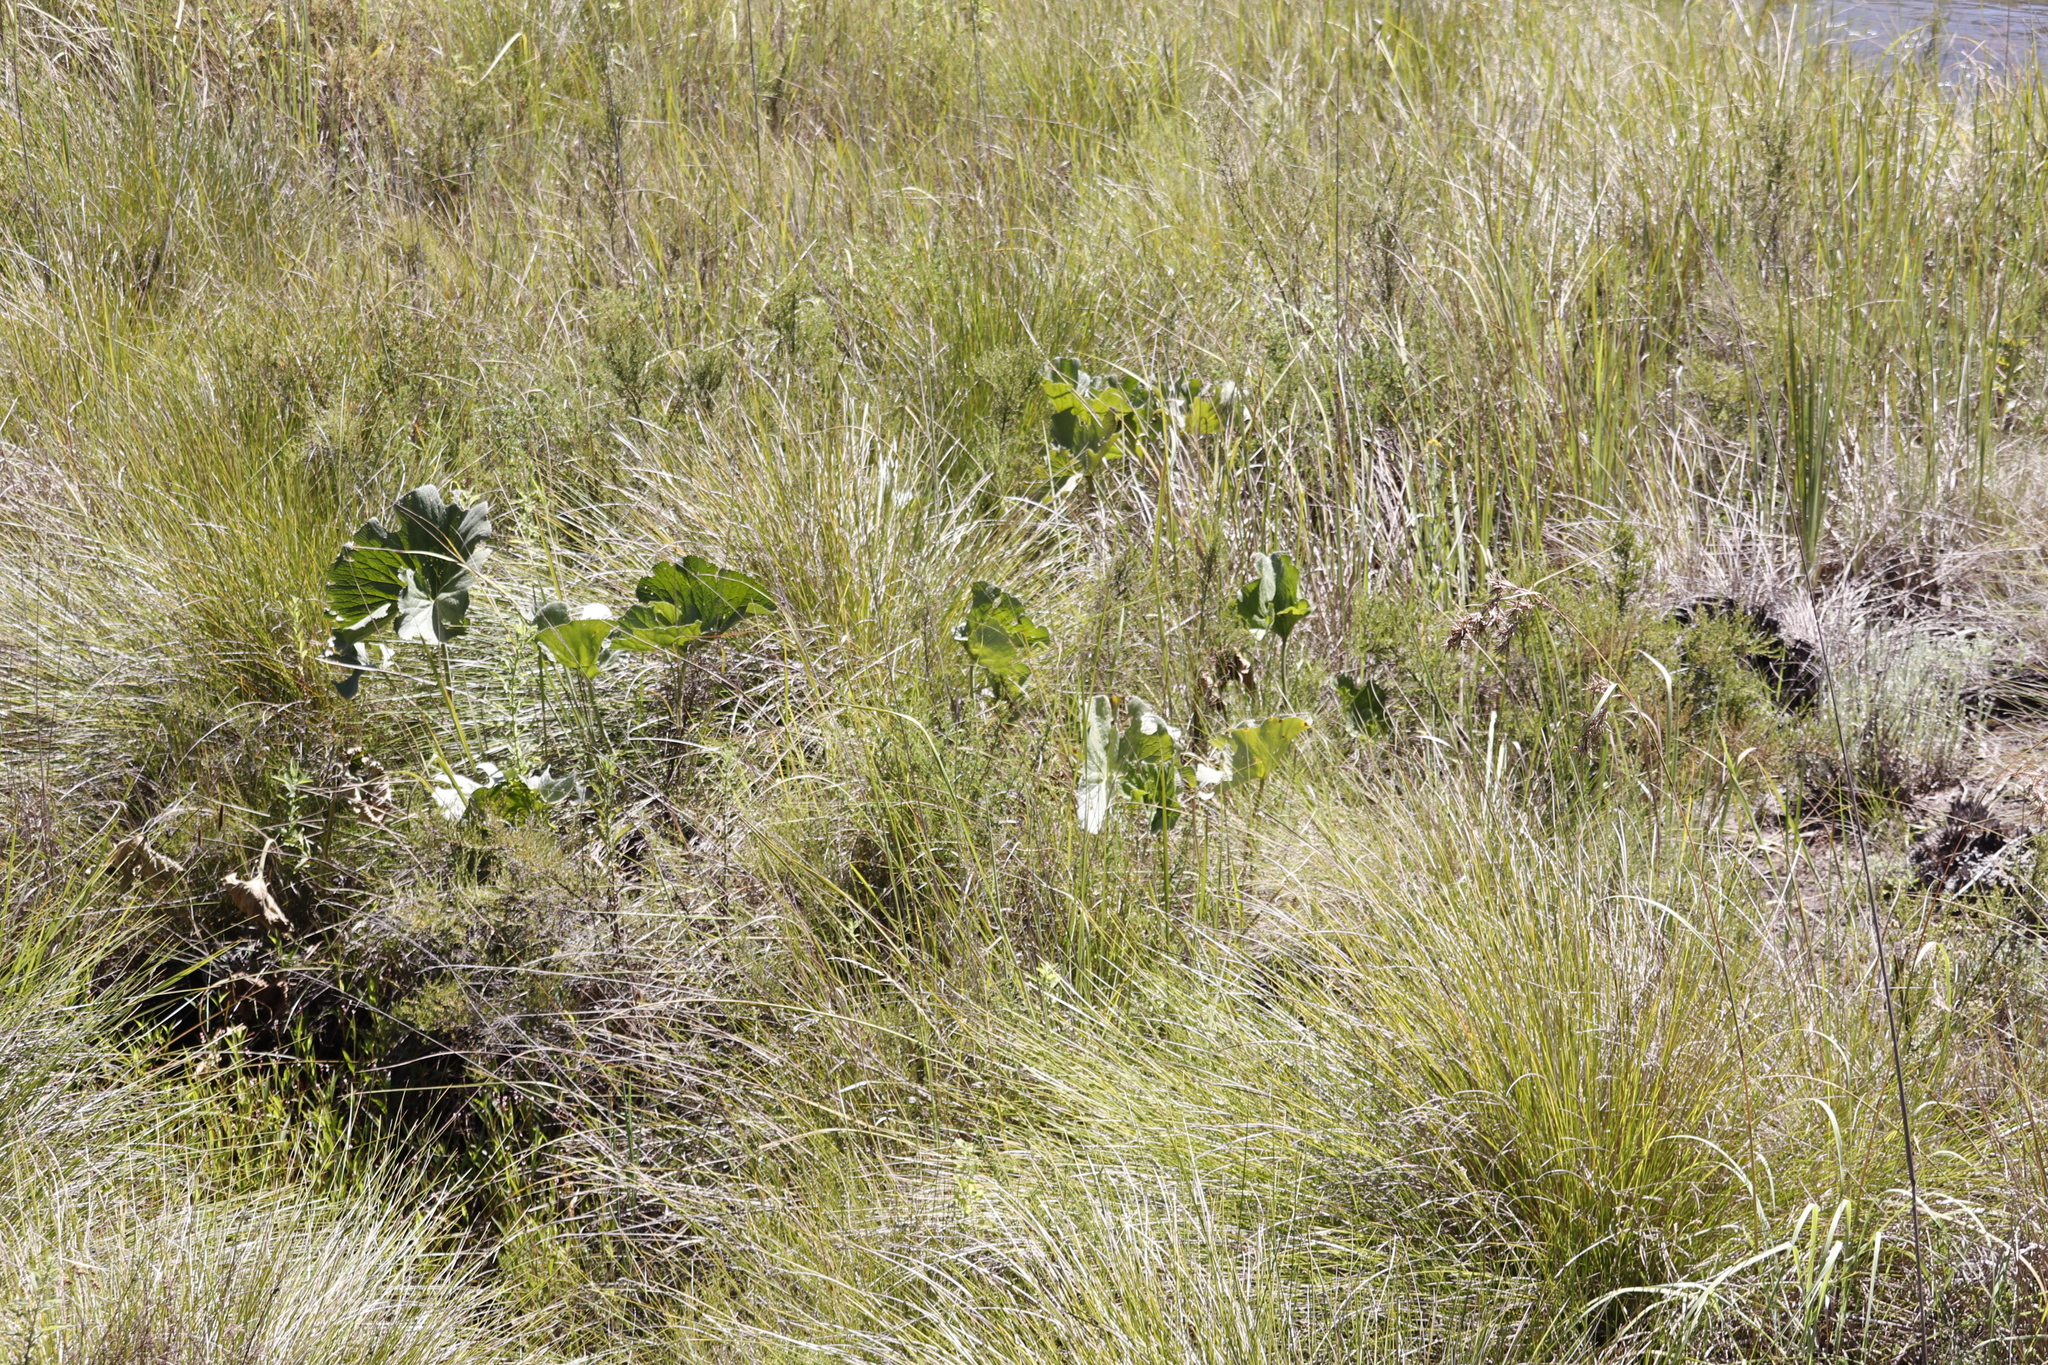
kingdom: Plantae
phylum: Tracheophyta
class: Magnoliopsida
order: Gunnerales
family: Gunneraceae
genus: Gunnera
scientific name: Gunnera perpensa
